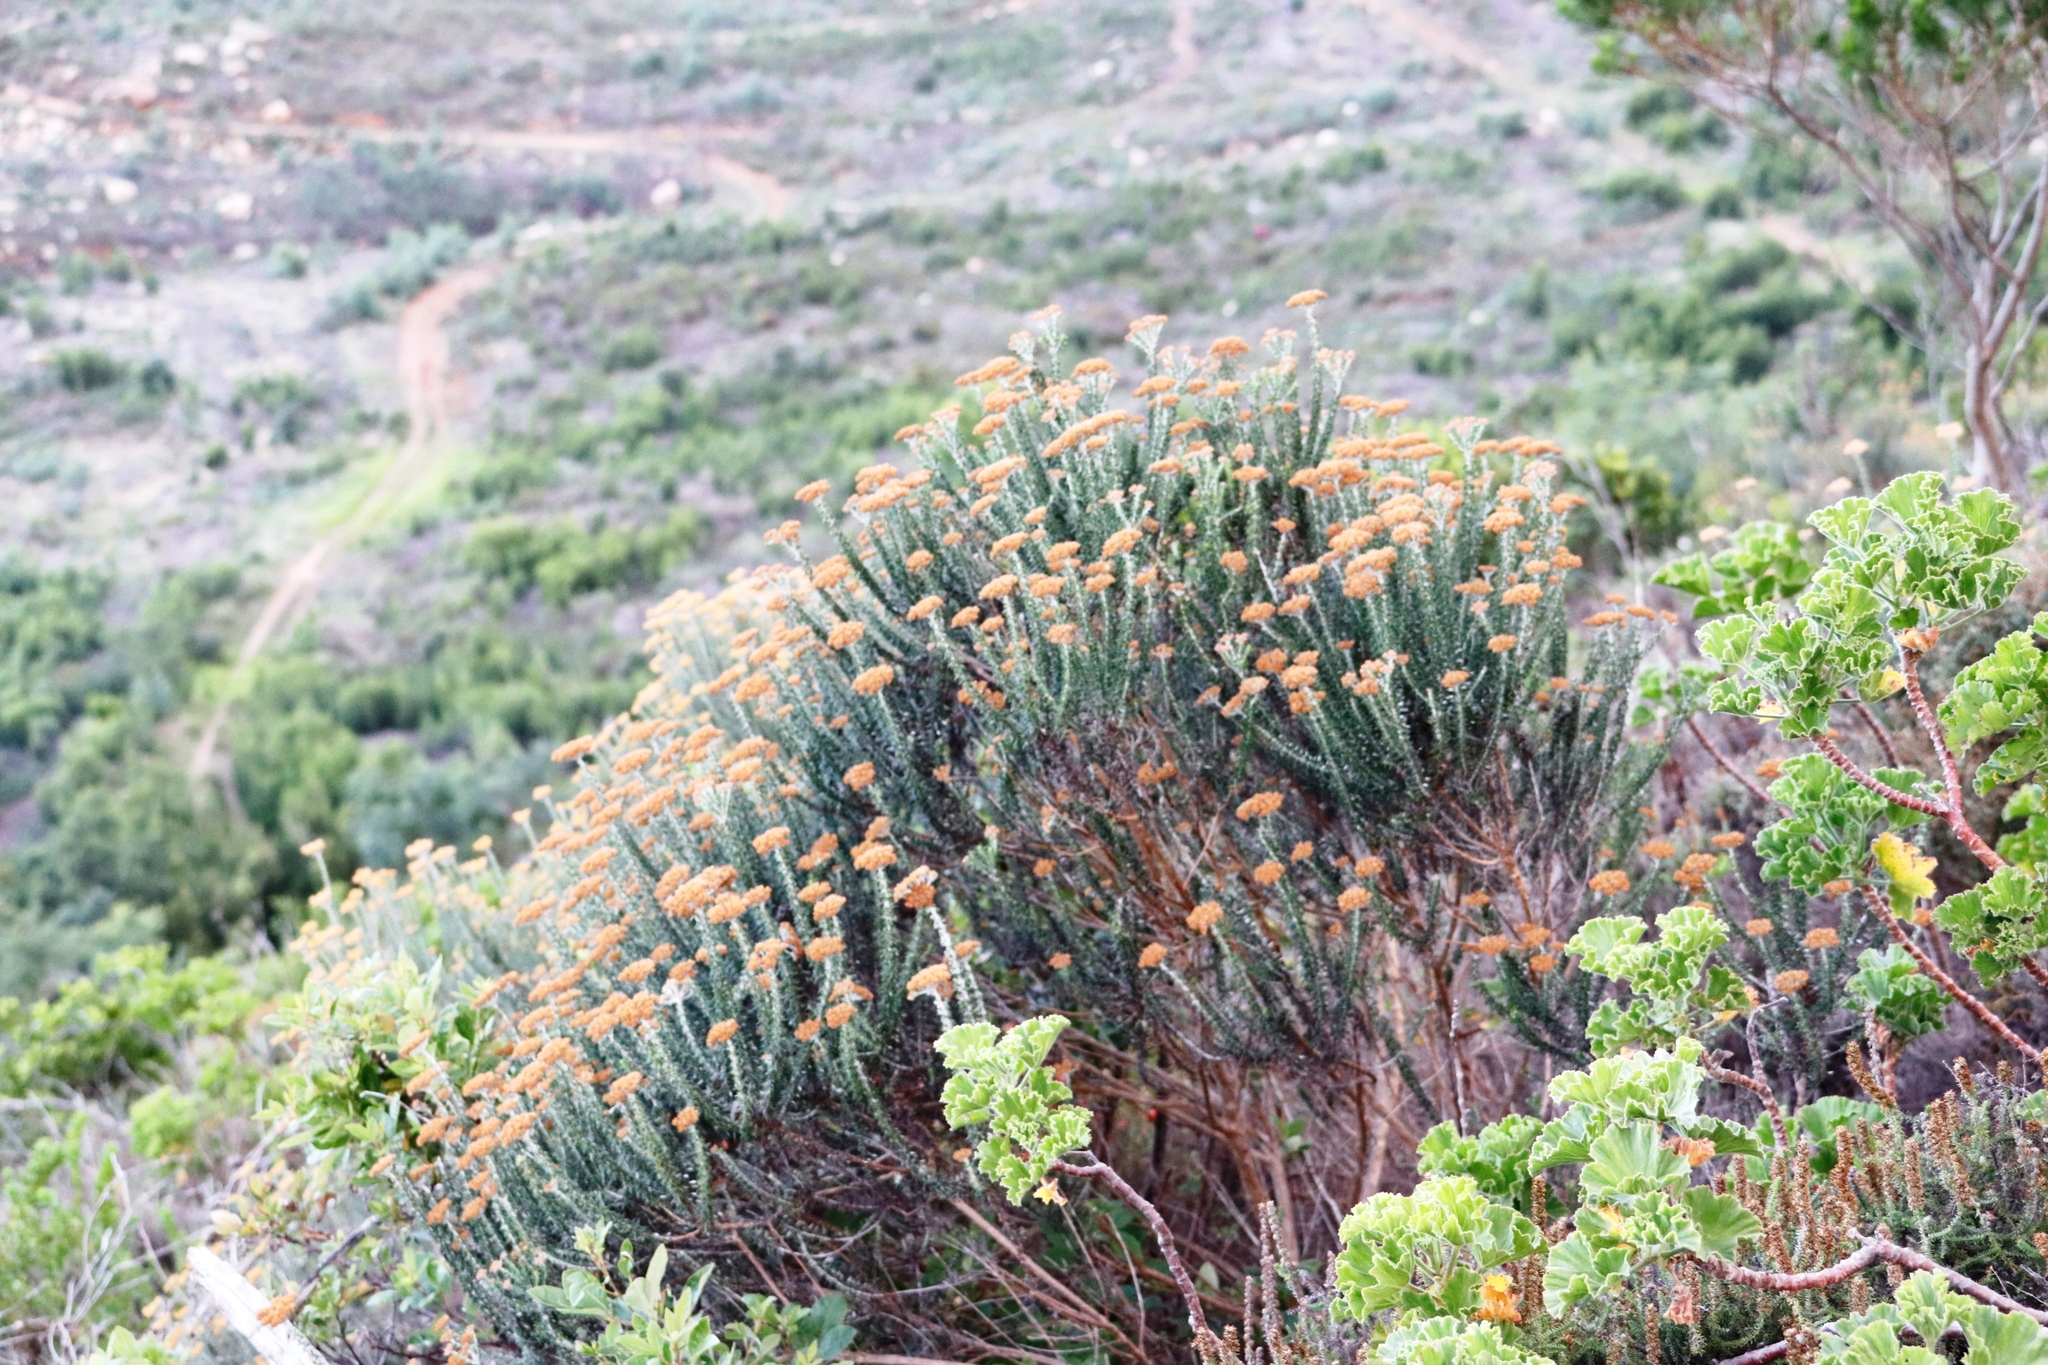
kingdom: Plantae
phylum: Tracheophyta
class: Magnoliopsida
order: Asterales
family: Asteraceae
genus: Metalasia
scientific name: Metalasia densa
